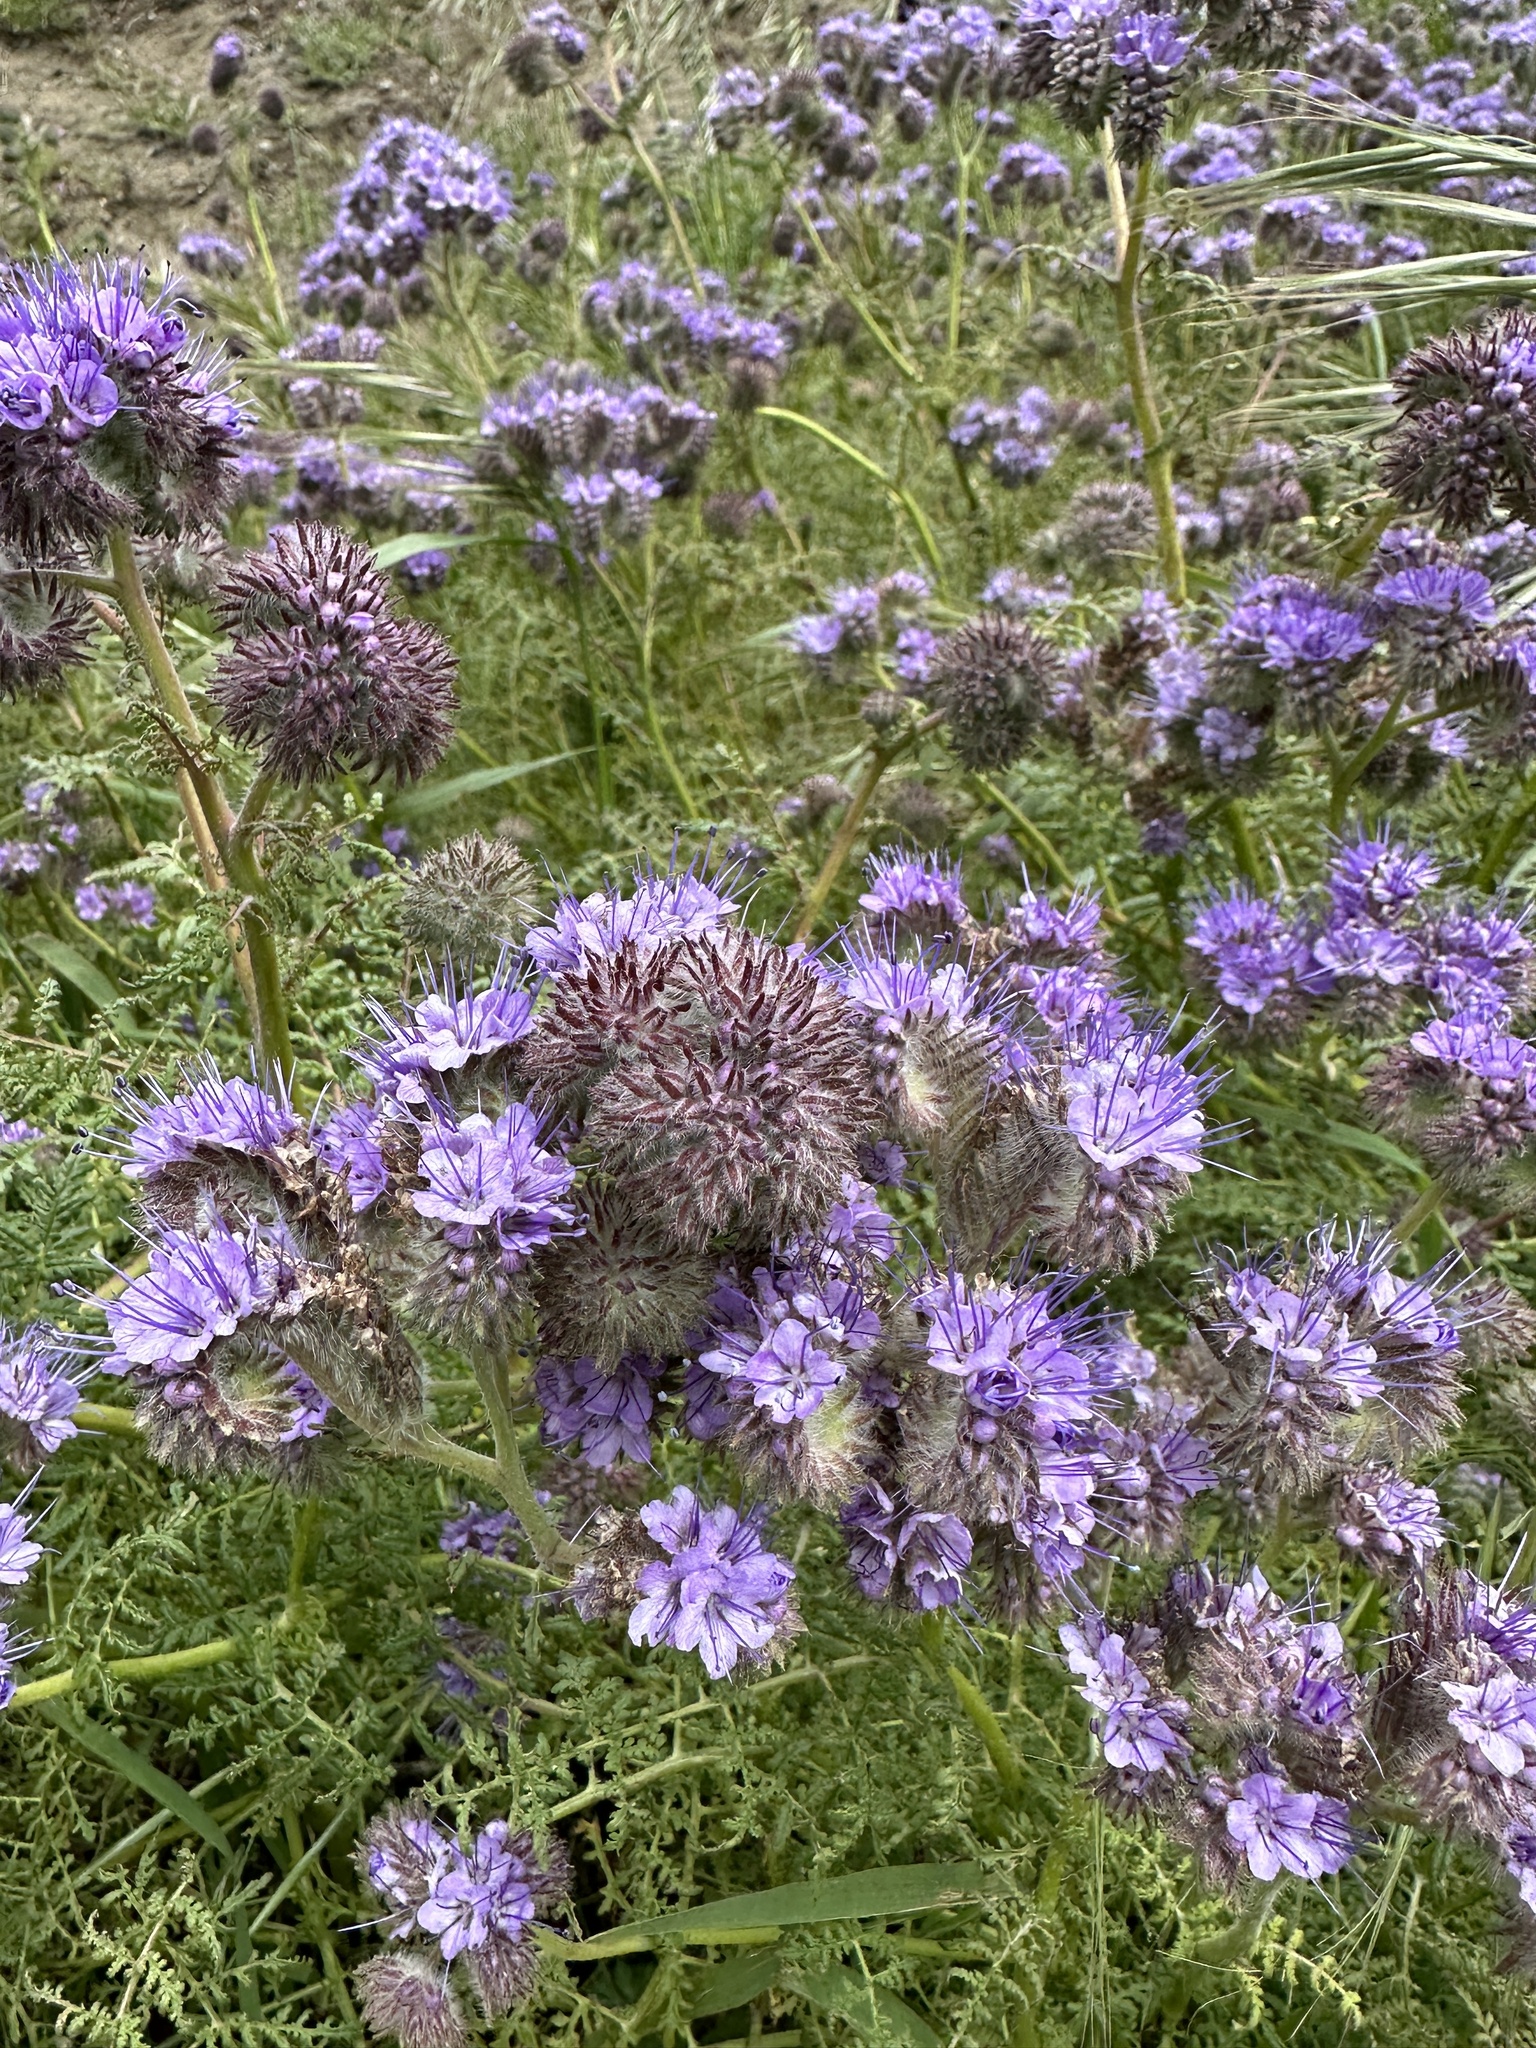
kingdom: Plantae
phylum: Tracheophyta
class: Magnoliopsida
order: Boraginales
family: Hydrophyllaceae
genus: Phacelia
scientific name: Phacelia tanacetifolia
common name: Phacelia
